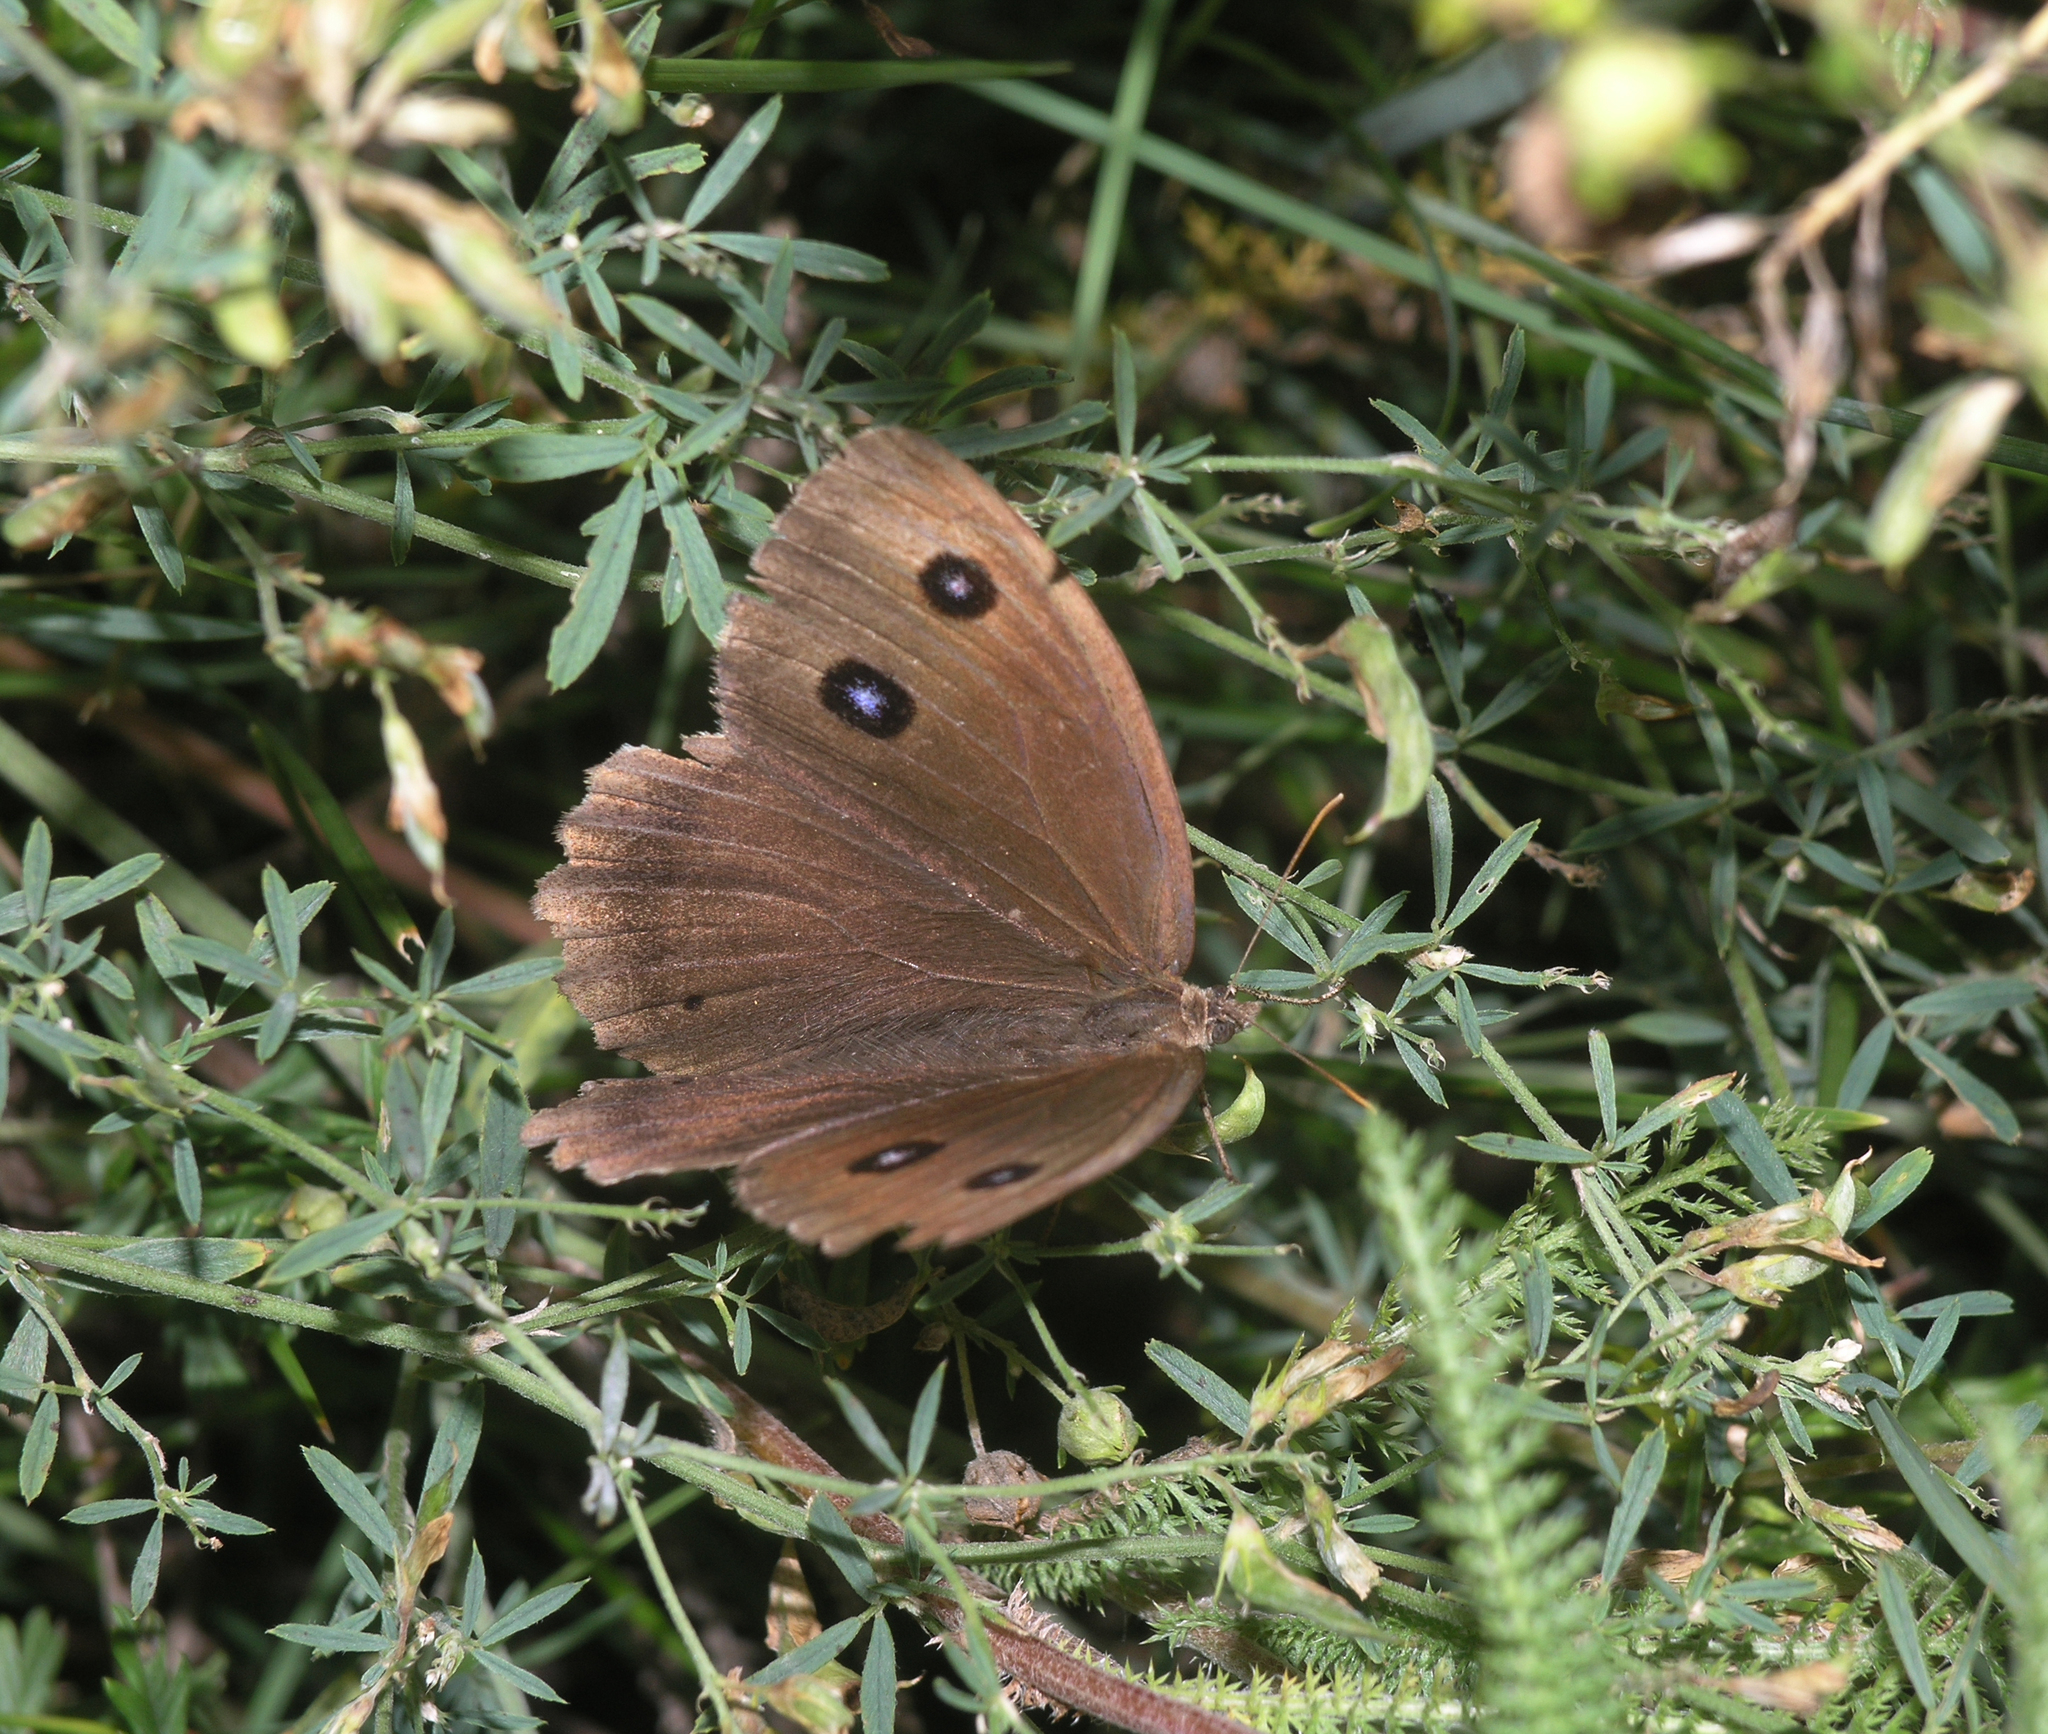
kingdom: Animalia
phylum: Arthropoda
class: Insecta
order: Lepidoptera
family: Nymphalidae
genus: Minois
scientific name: Minois dryas
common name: Dryad
